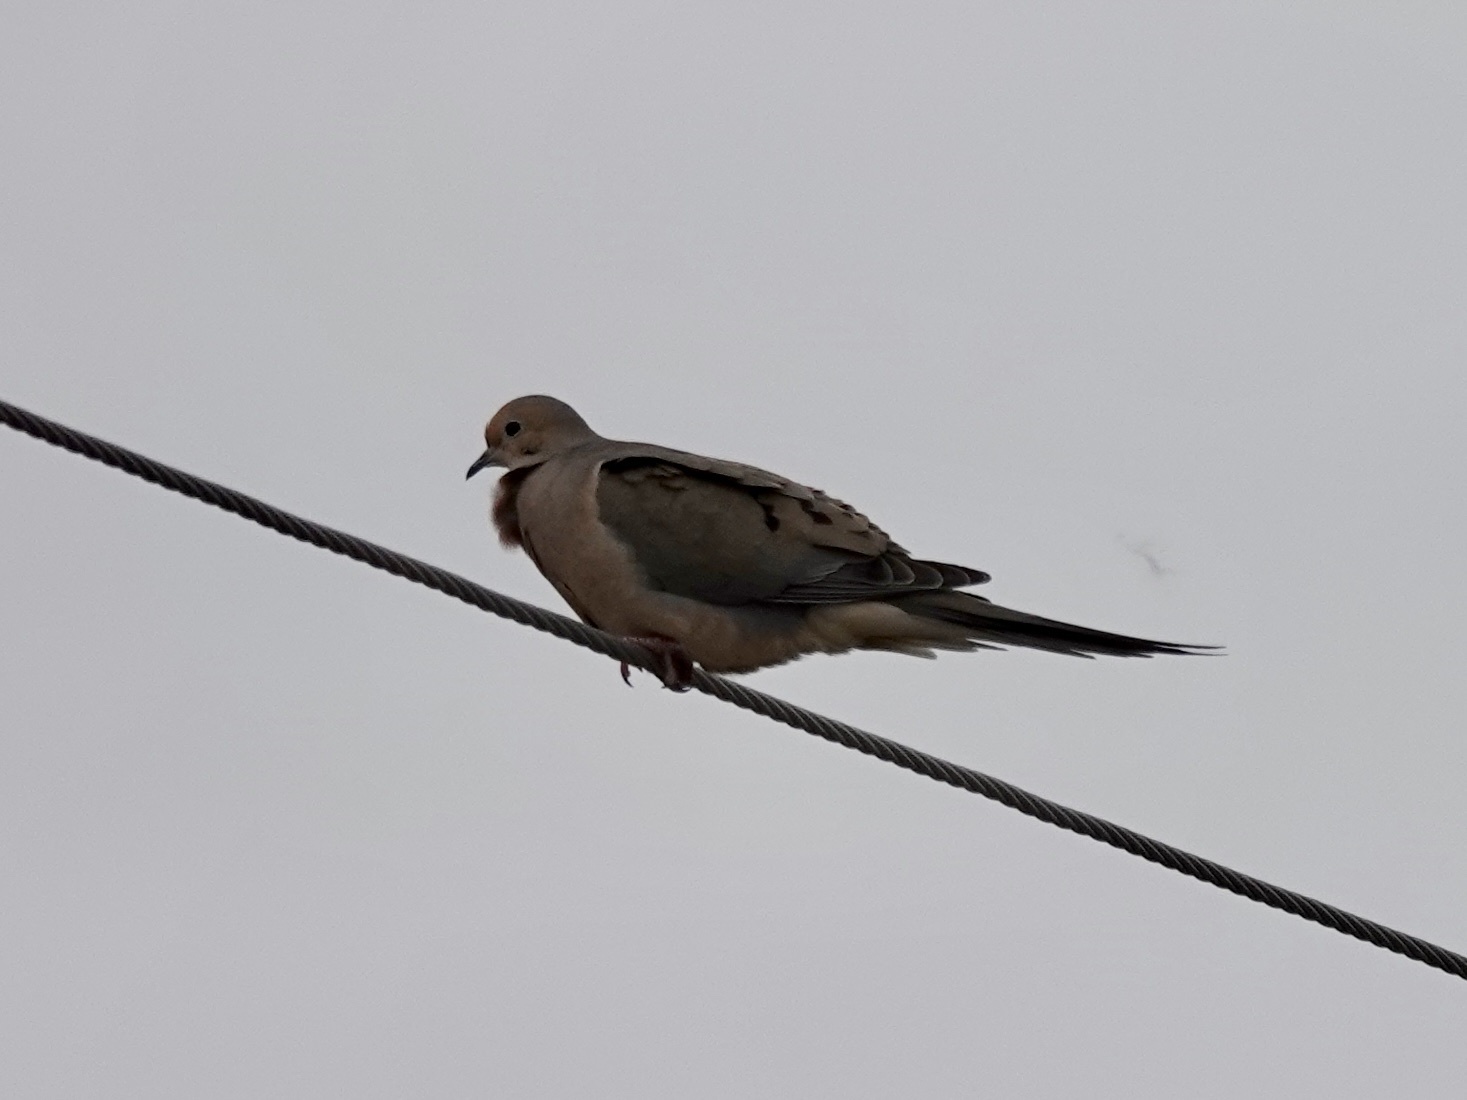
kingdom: Animalia
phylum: Chordata
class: Aves
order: Columbiformes
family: Columbidae
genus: Zenaida
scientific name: Zenaida macroura
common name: Mourning dove
